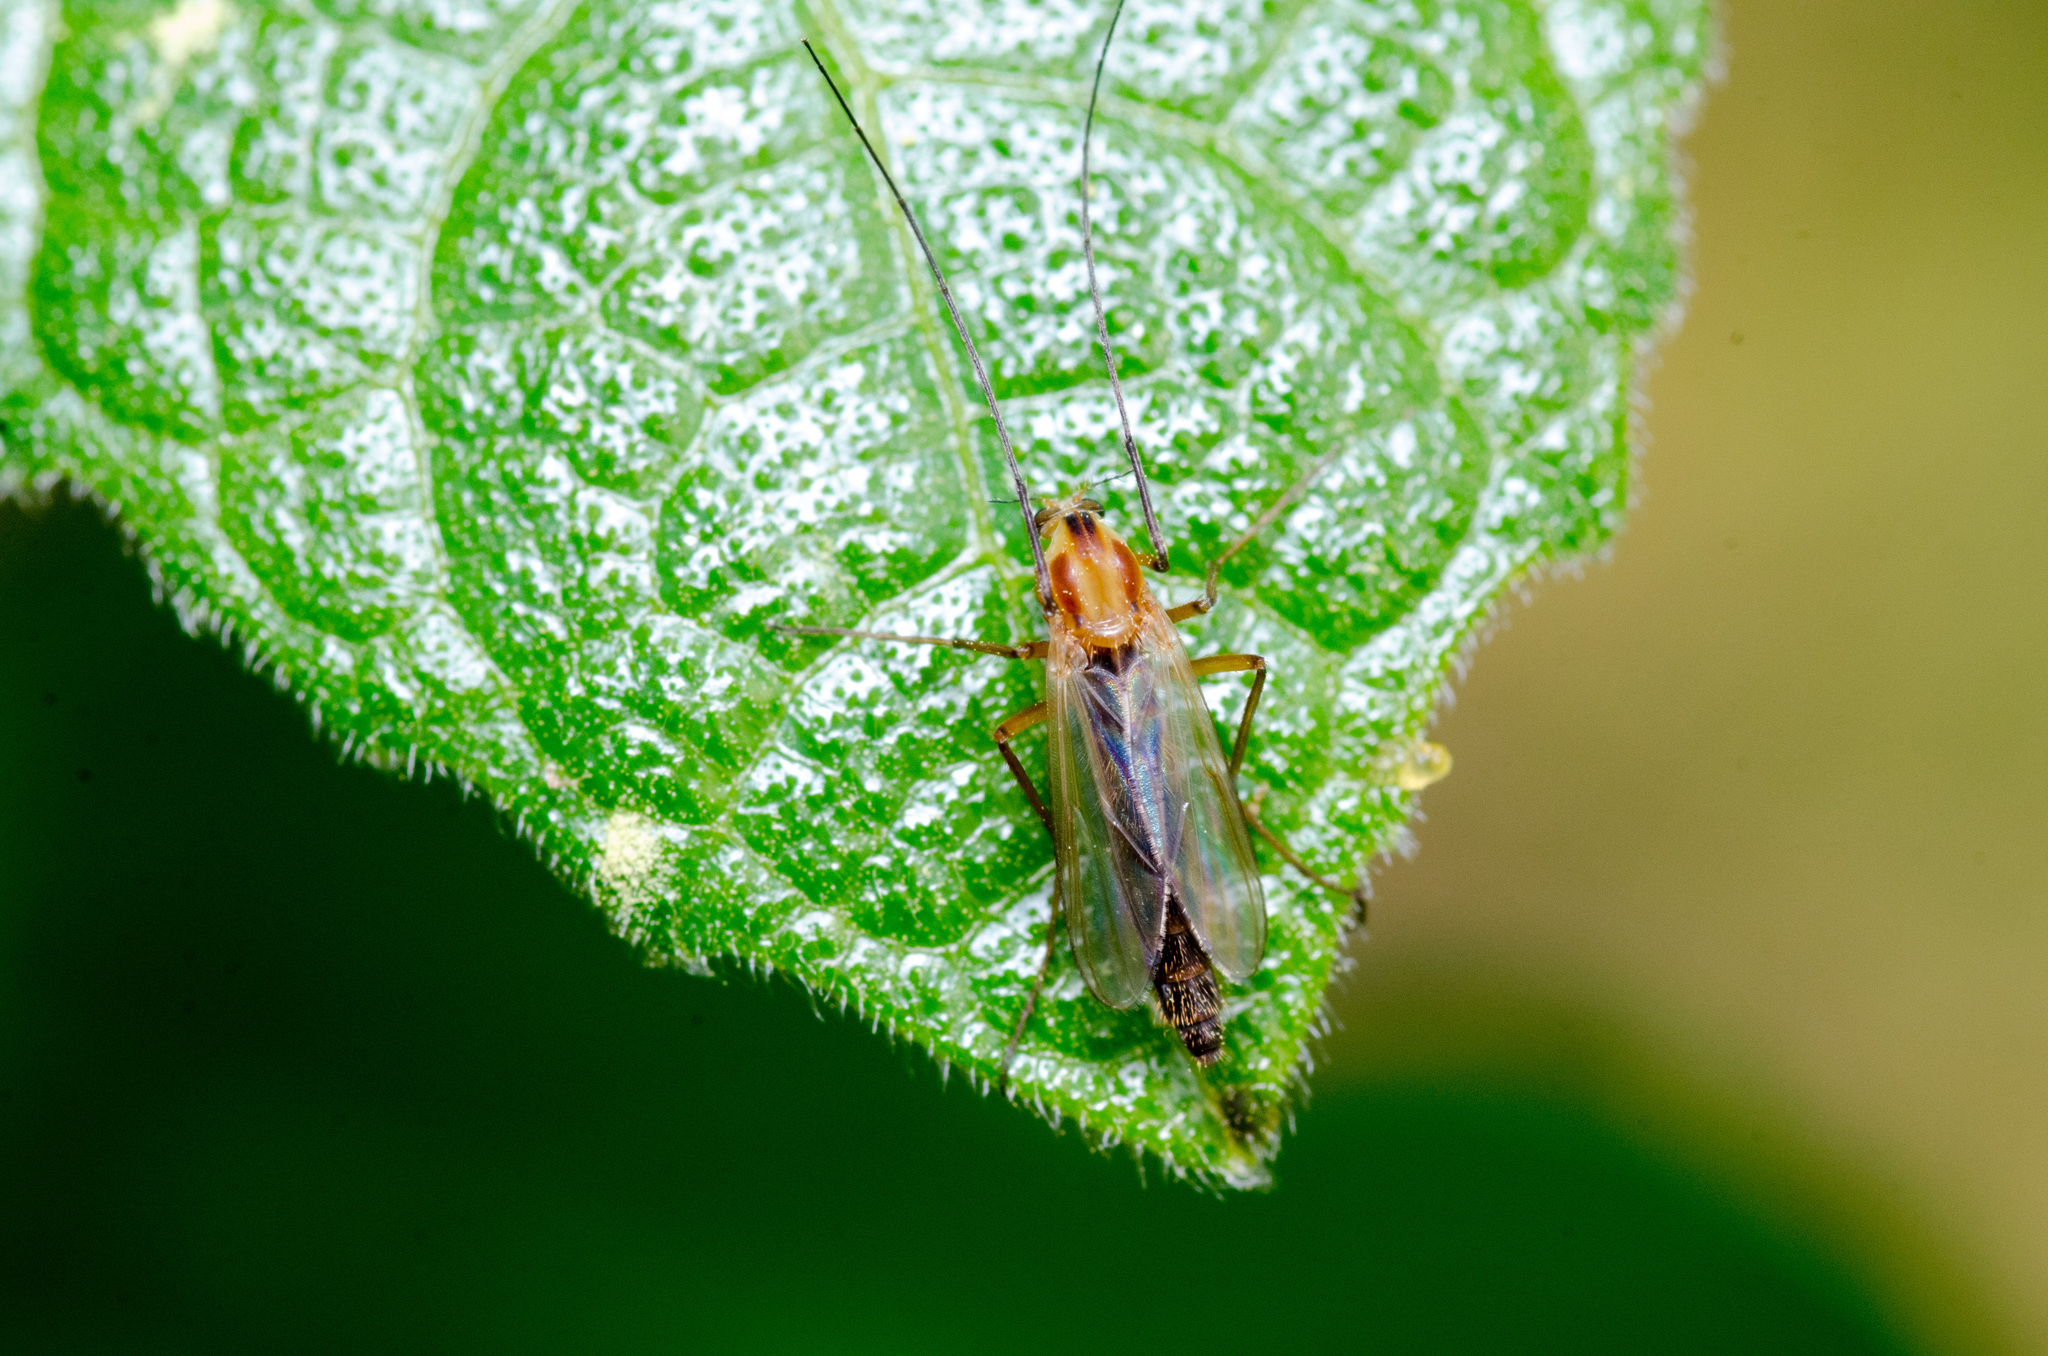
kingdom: Animalia
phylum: Arthropoda
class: Insecta
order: Diptera
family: Chironomidae
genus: Chironomus
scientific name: Chironomus ochreatus
